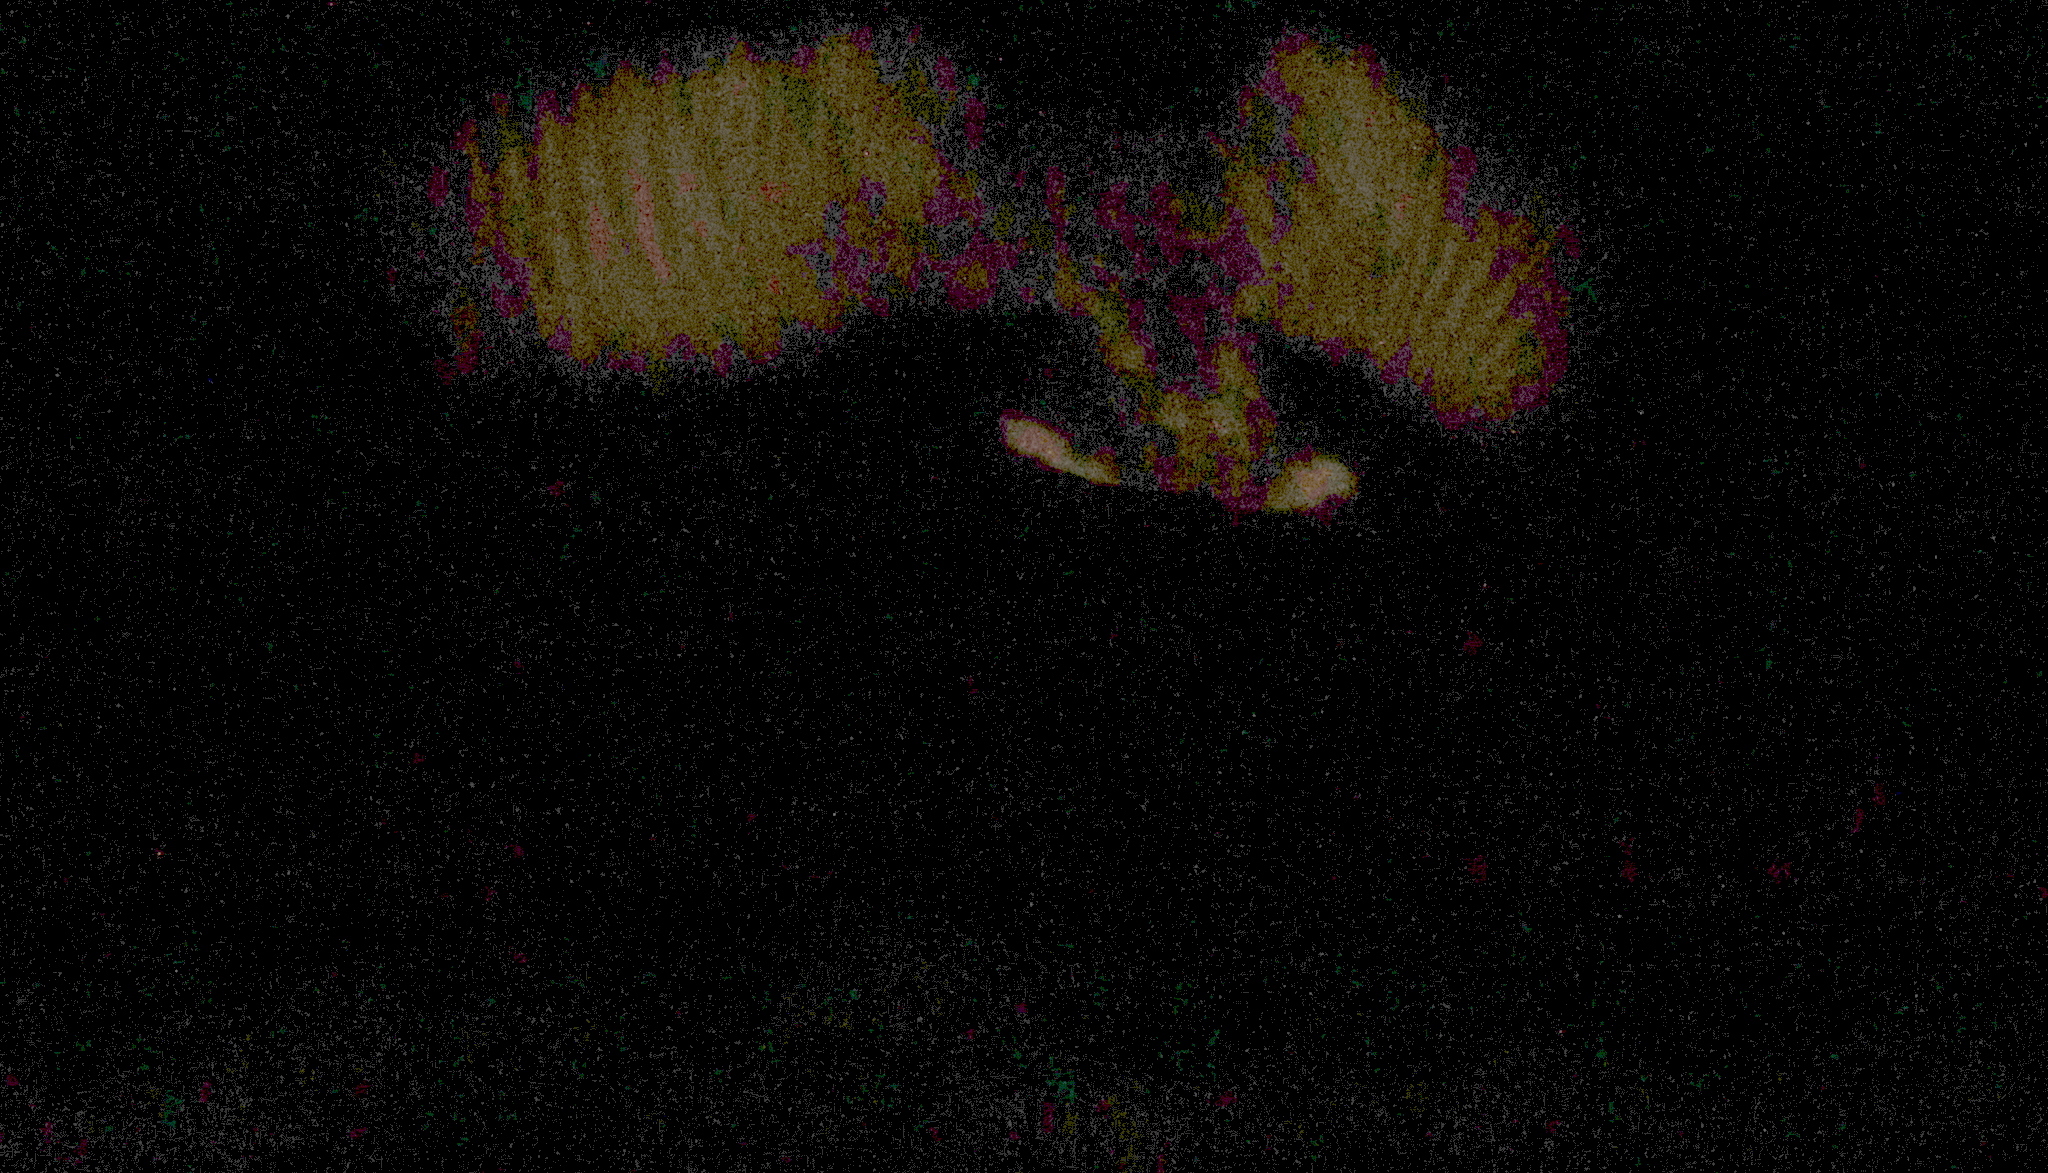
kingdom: Animalia
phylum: Chordata
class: Aves
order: Caprimulgiformes
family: Caprimulgidae
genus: Phalaenoptilus
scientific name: Phalaenoptilus nuttallii
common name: Common poorwill
